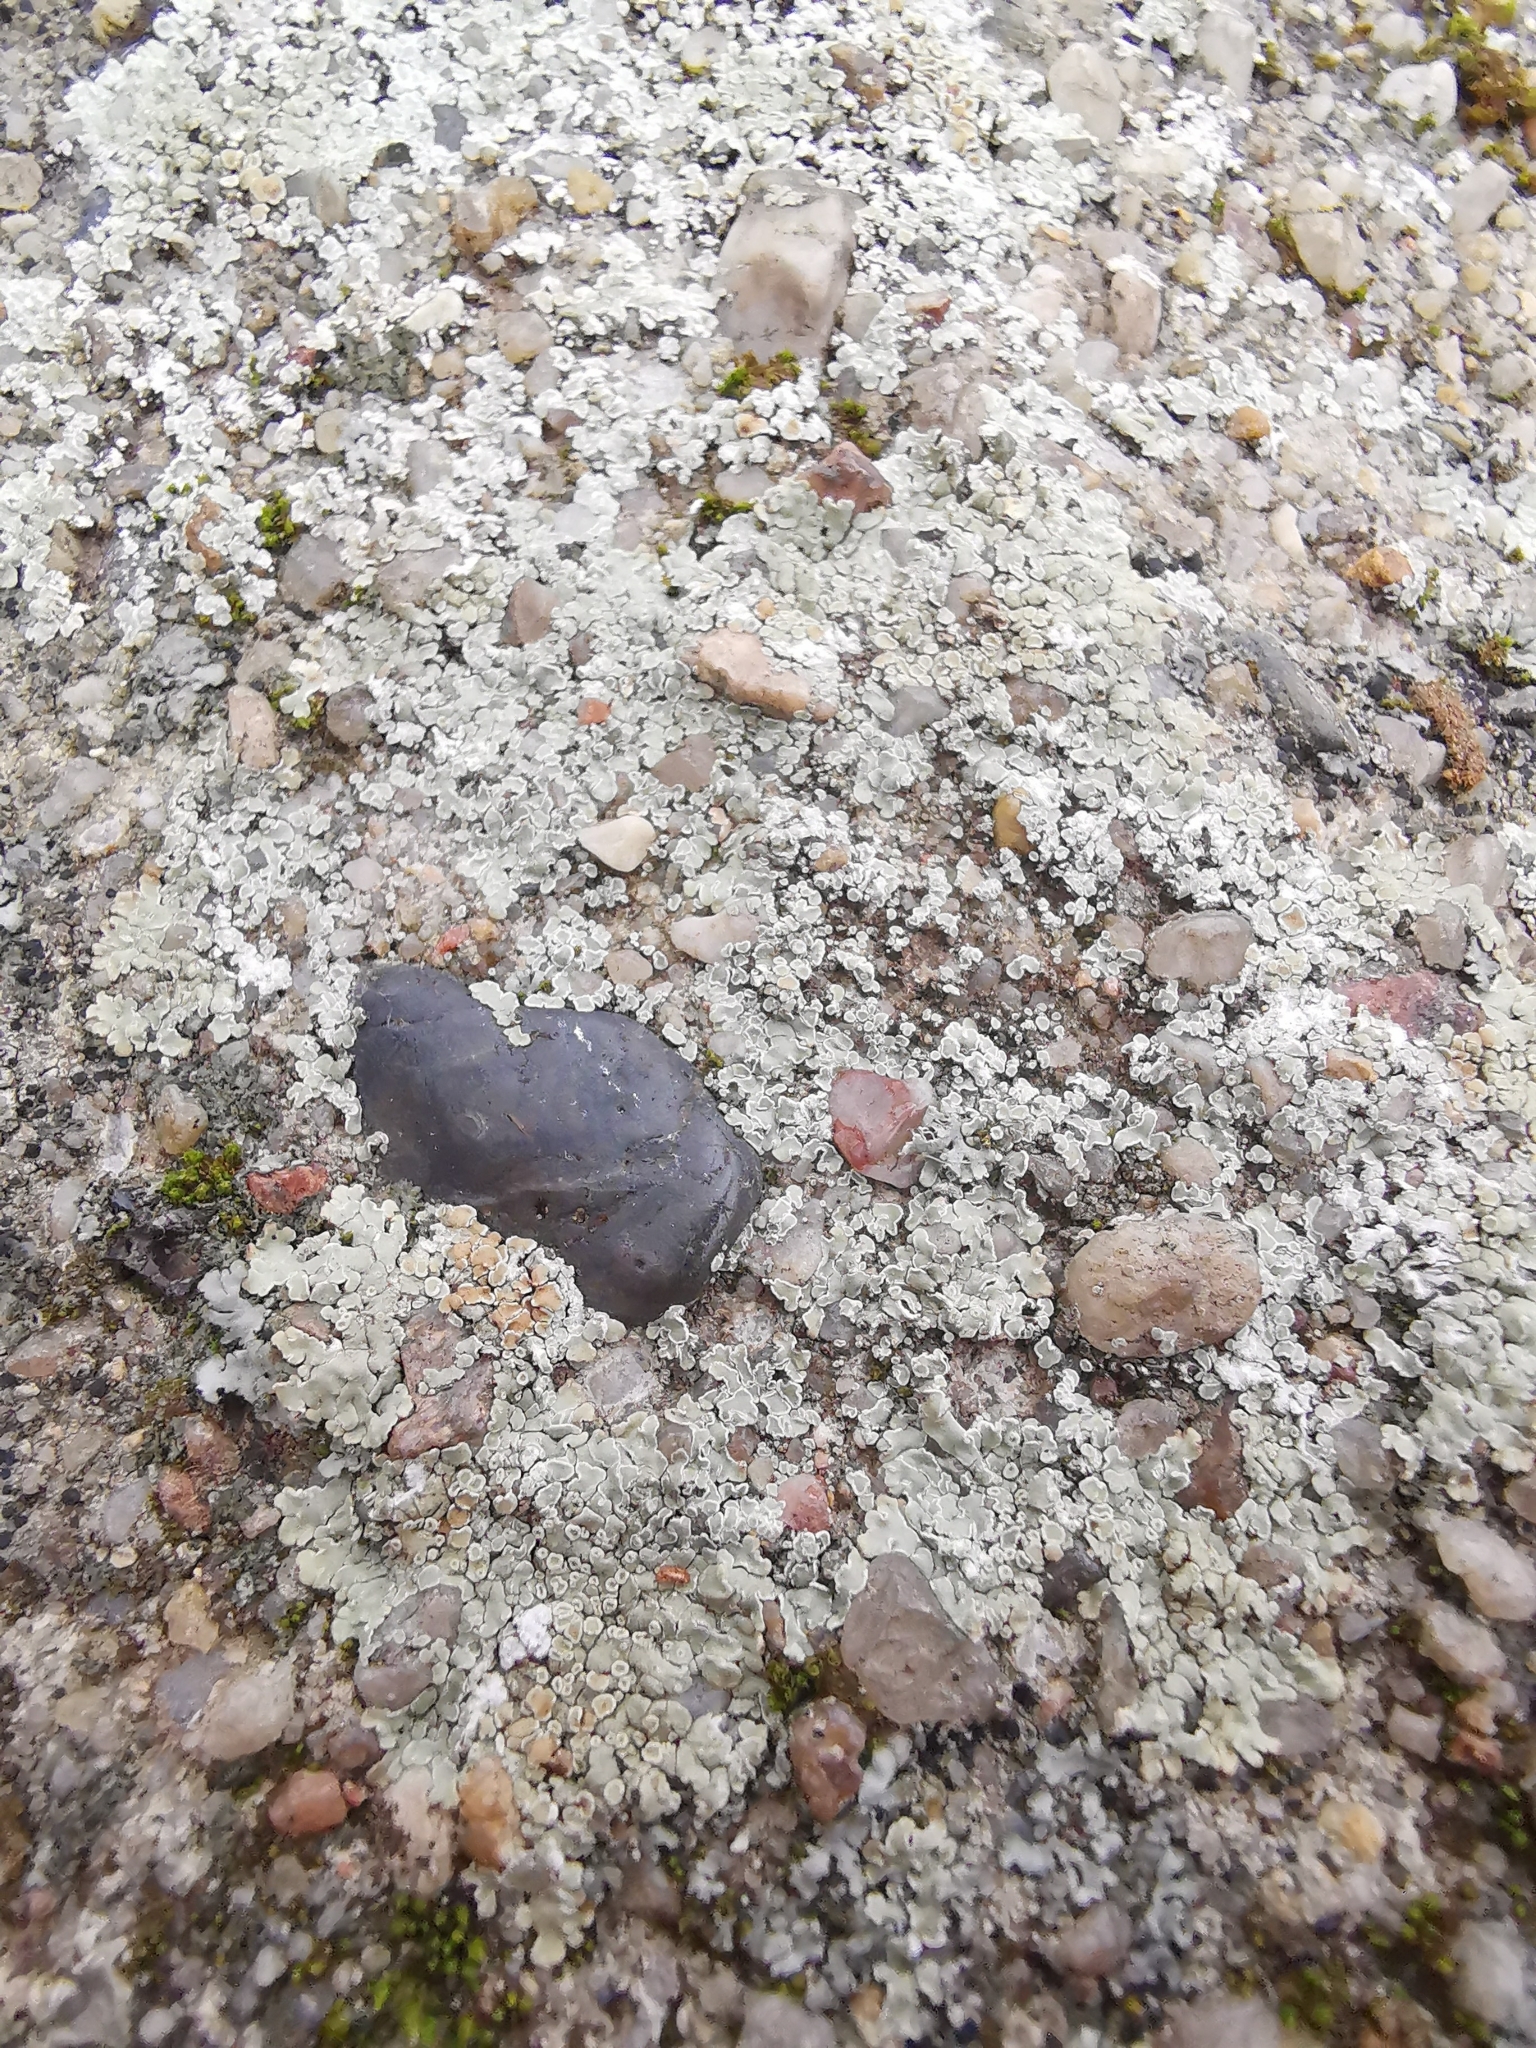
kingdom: Fungi
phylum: Ascomycota
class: Lecanoromycetes
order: Lecanorales
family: Lecanoraceae
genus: Protoparmeliopsis
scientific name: Protoparmeliopsis muralis
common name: Stonewall rim lichen
